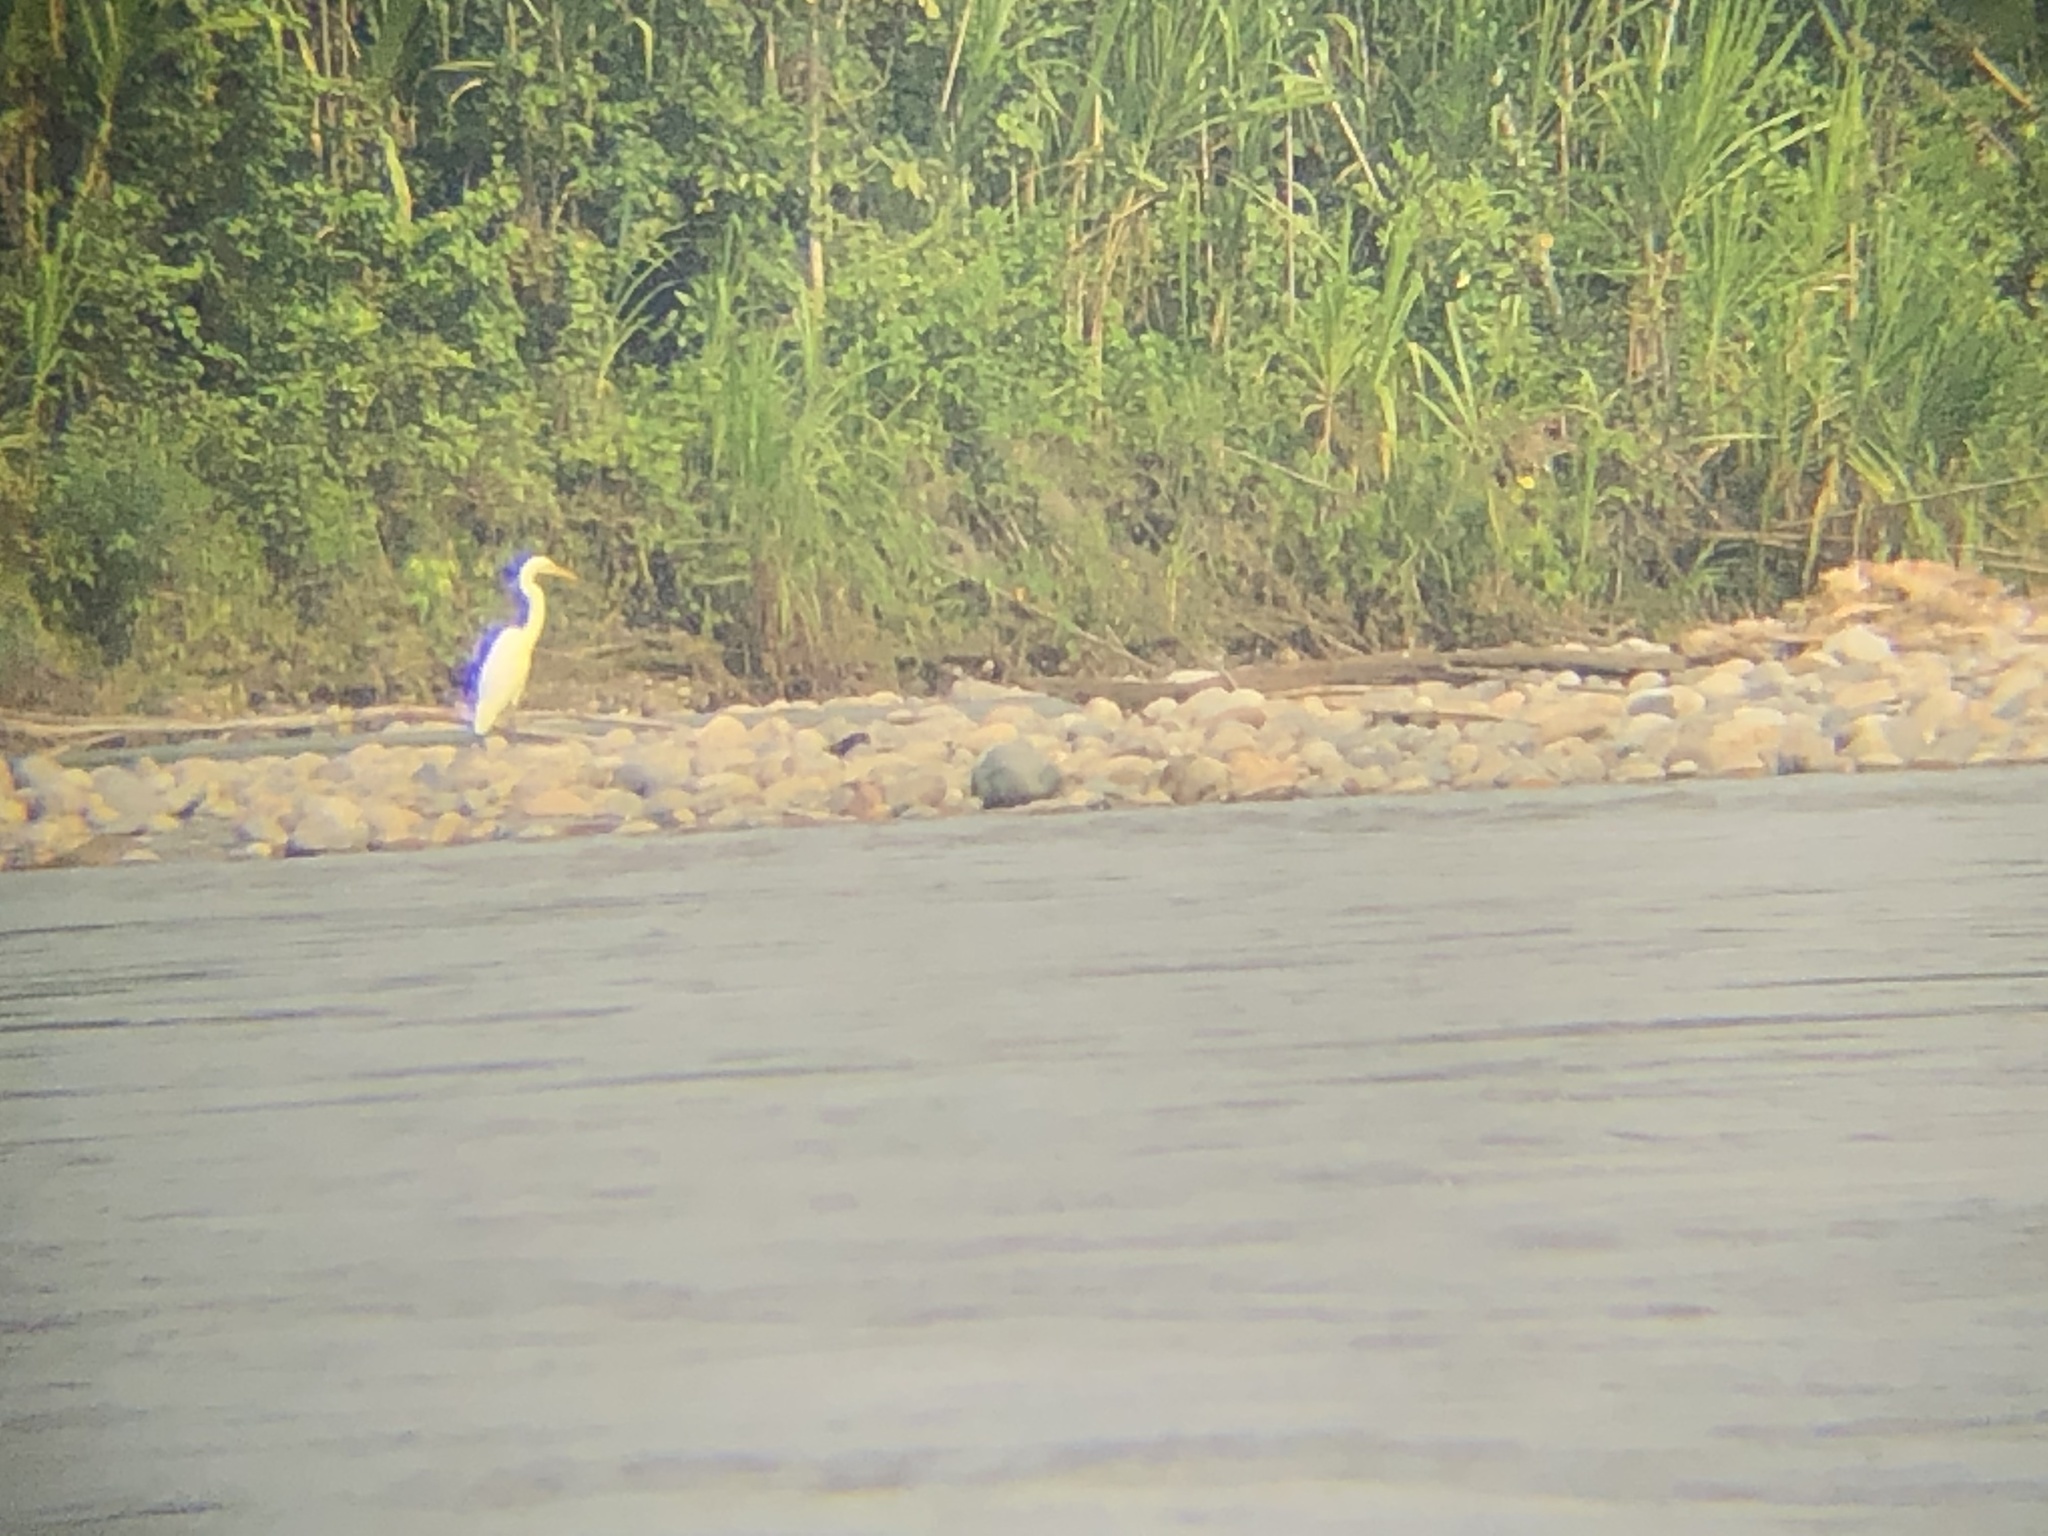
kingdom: Animalia
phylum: Chordata
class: Aves
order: Pelecaniformes
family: Ardeidae
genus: Ardea
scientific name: Ardea alba
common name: Great egret
